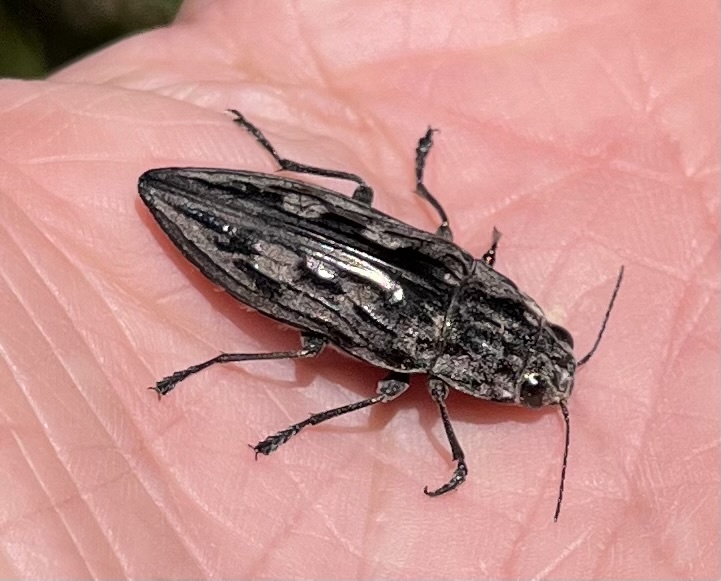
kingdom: Animalia
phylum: Arthropoda
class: Insecta
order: Coleoptera
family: Buprestidae
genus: Chalcophora
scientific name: Chalcophora virginiensis
